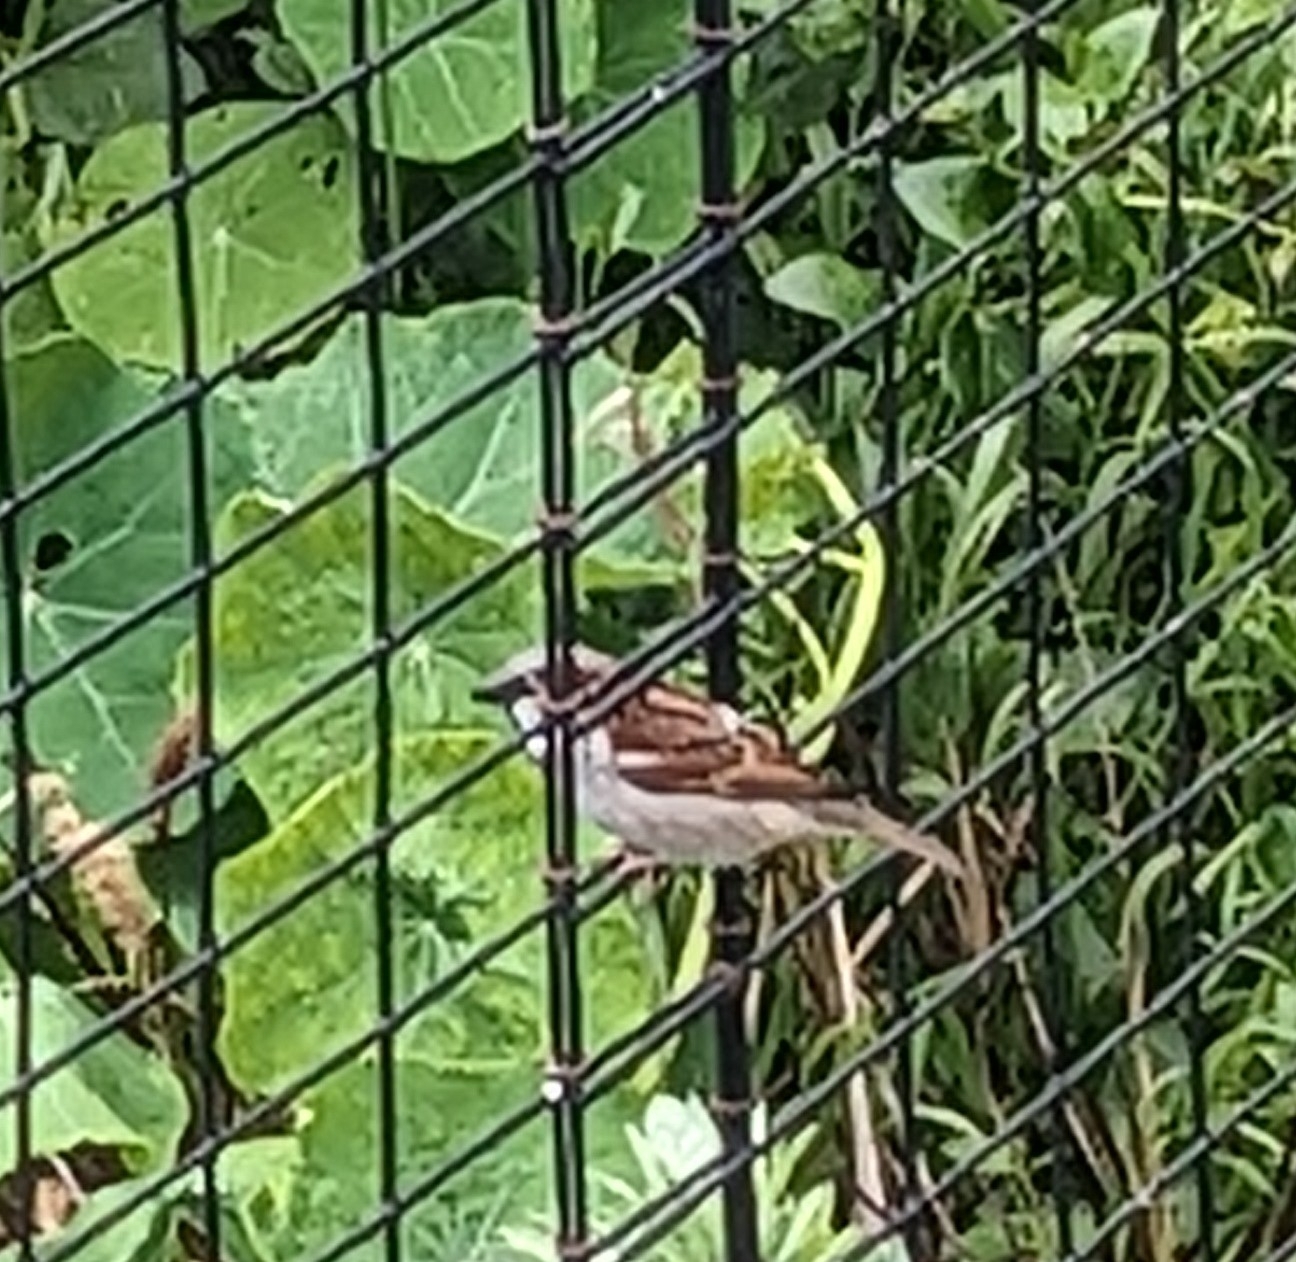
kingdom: Animalia
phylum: Chordata
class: Aves
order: Passeriformes
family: Passeridae
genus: Passer
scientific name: Passer domesticus
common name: House sparrow
